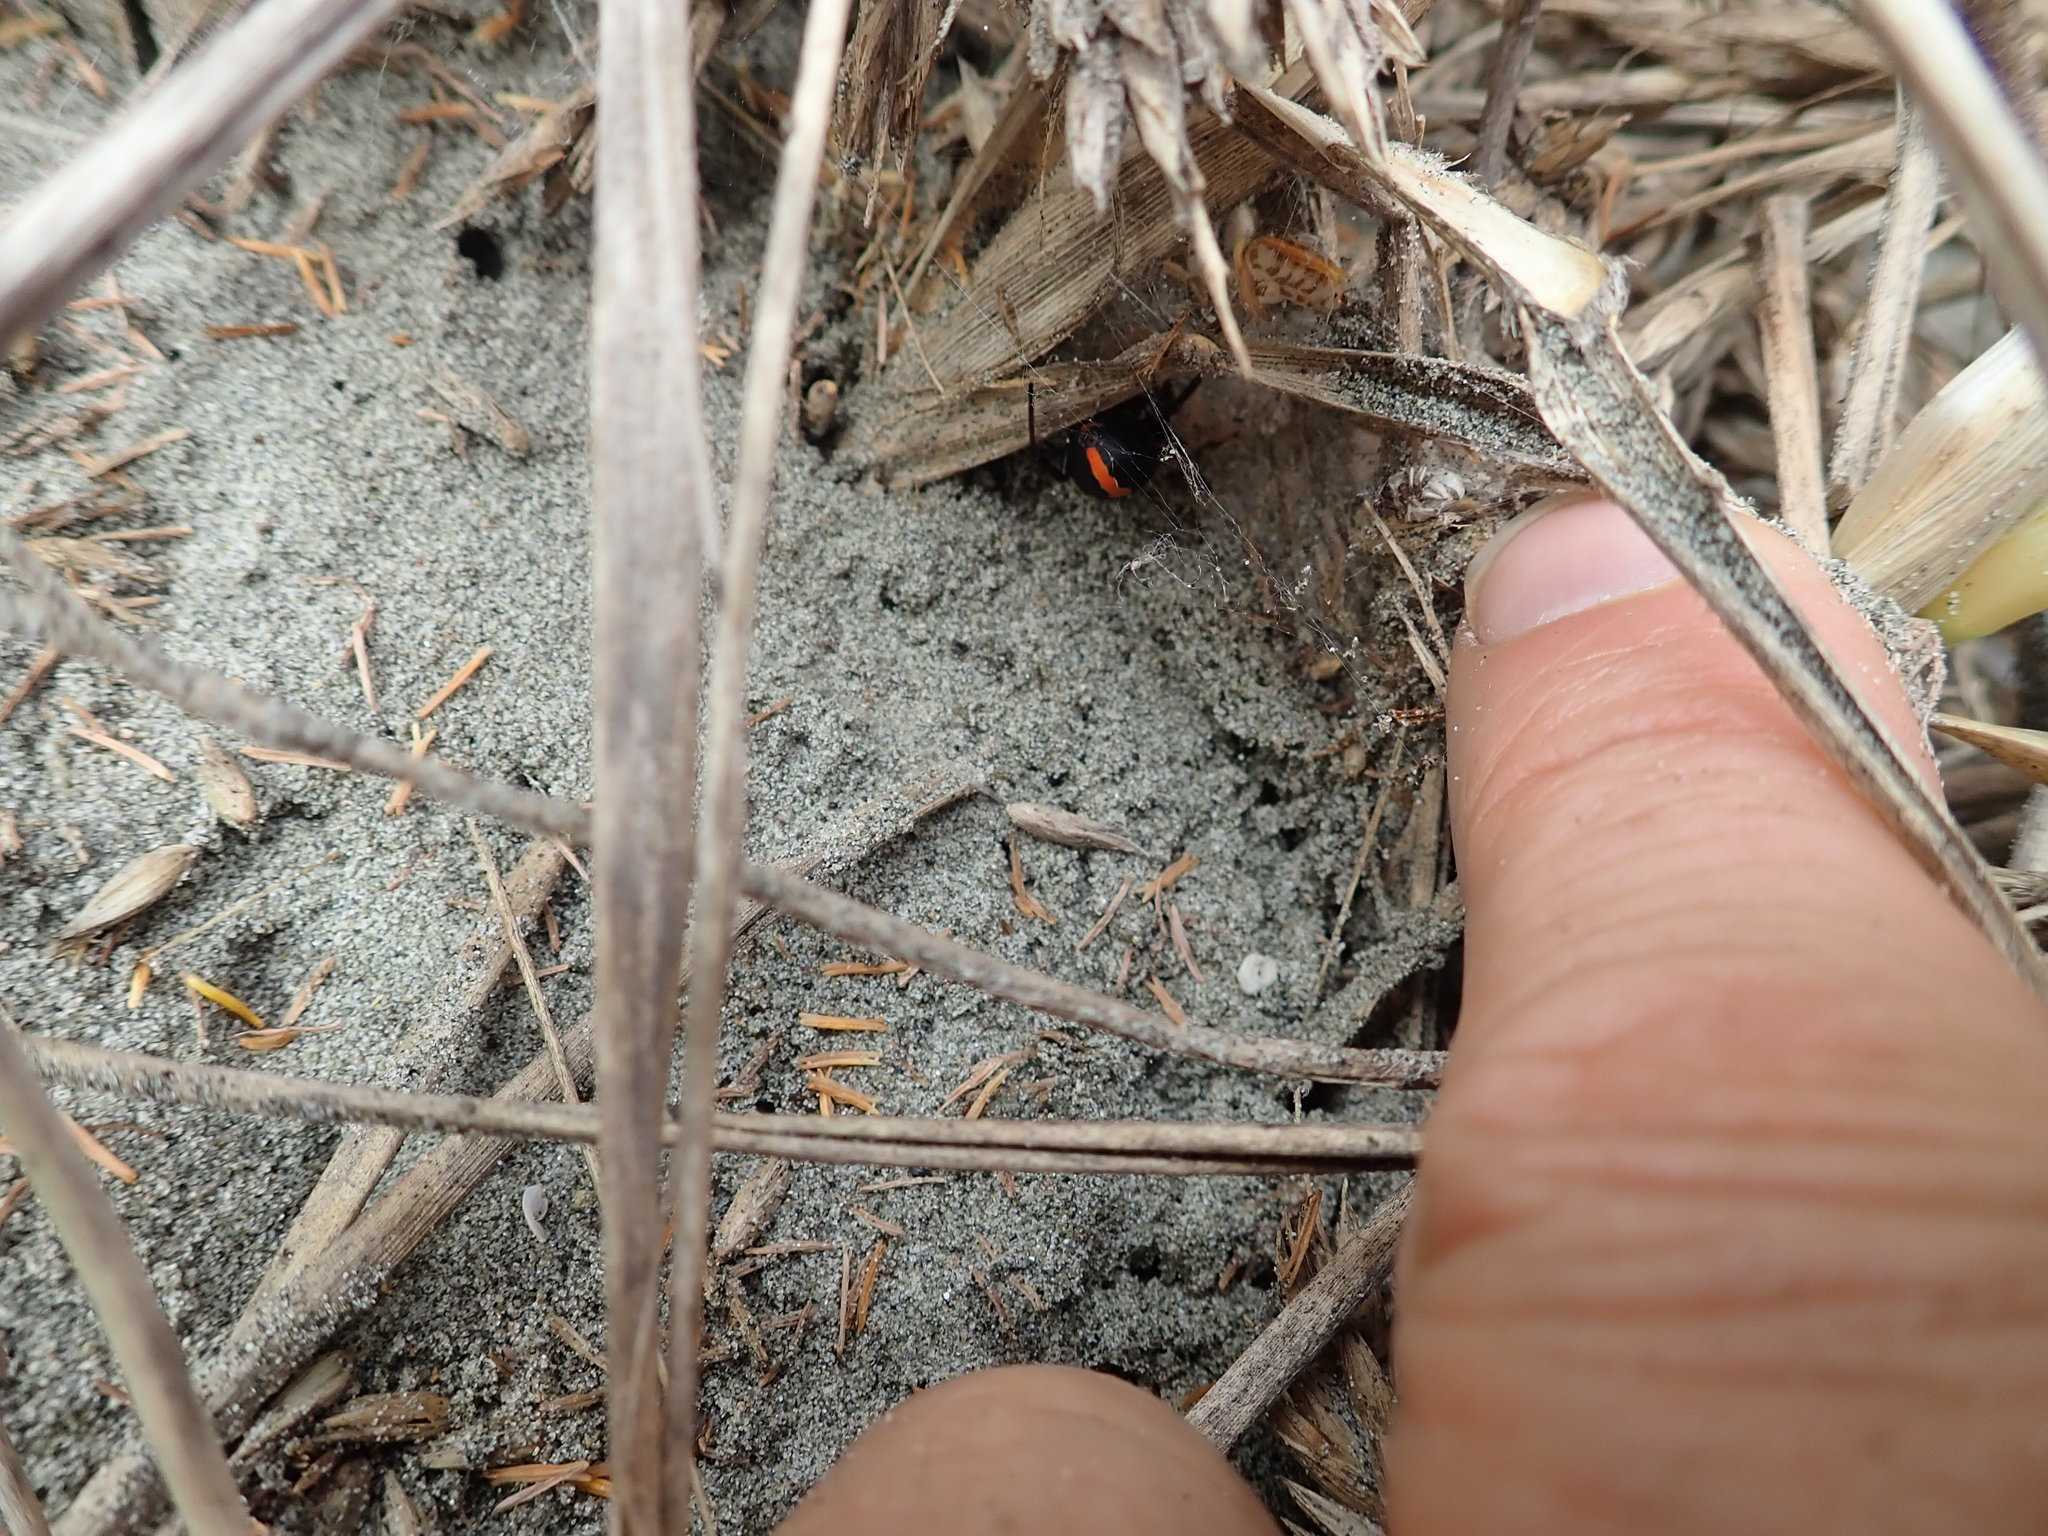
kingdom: Animalia
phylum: Arthropoda
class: Arachnida
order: Araneae
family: Theridiidae
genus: Latrodectus
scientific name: Latrodectus katipo
